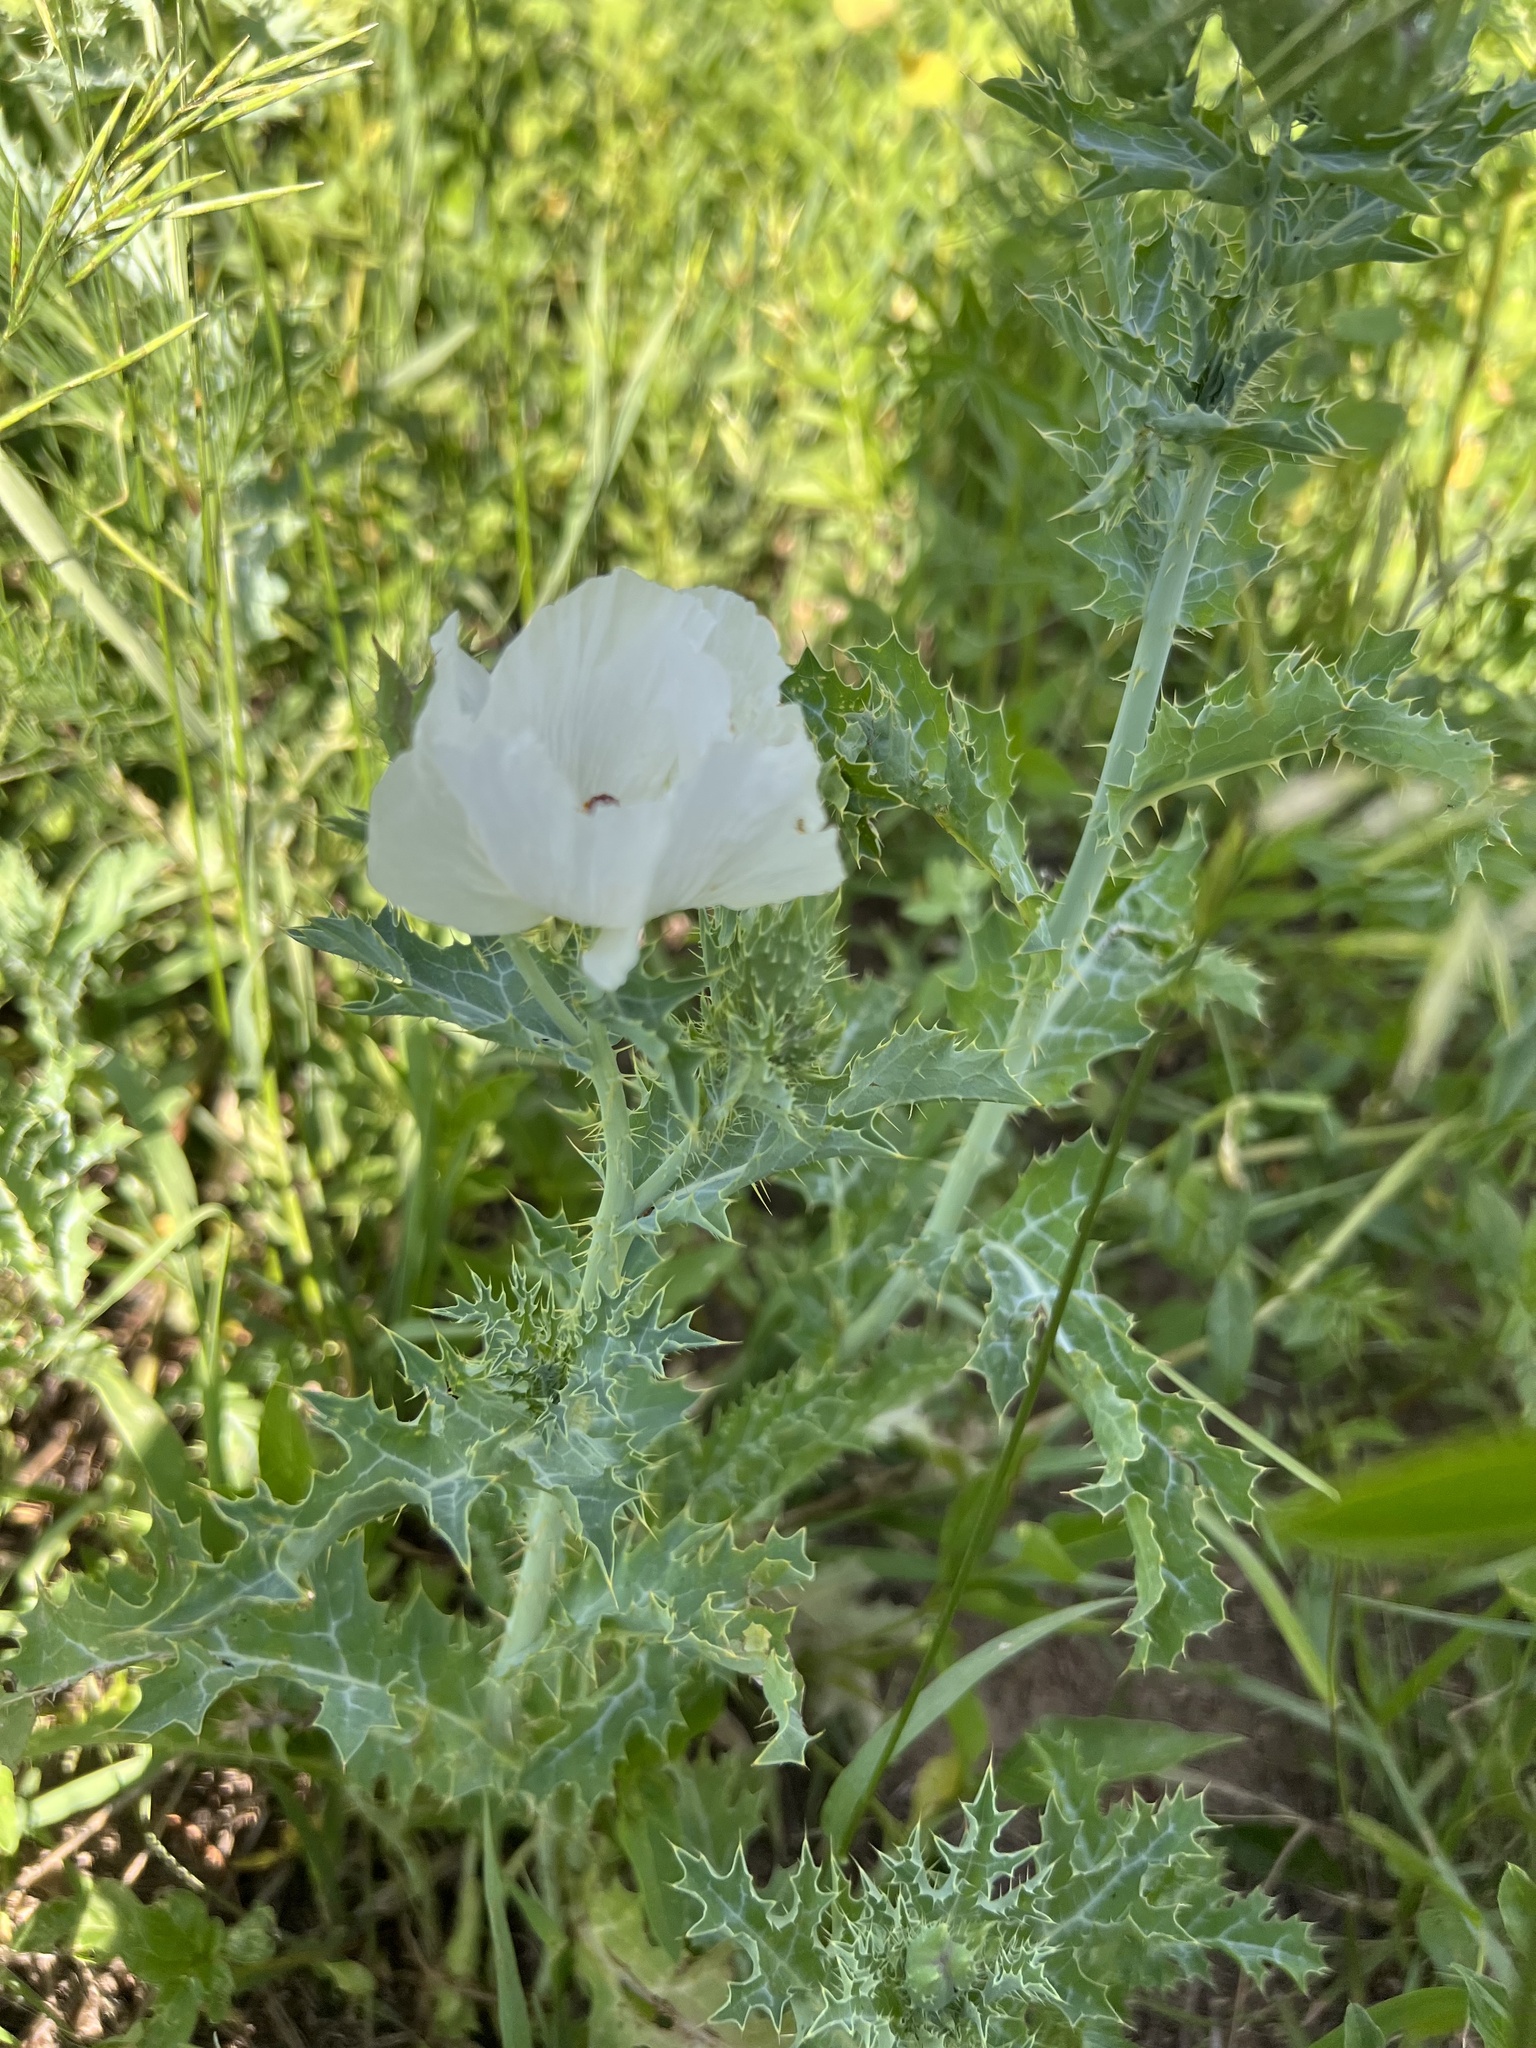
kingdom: Plantae
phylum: Tracheophyta
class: Magnoliopsida
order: Ranunculales
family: Papaveraceae
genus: Argemone
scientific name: Argemone polyanthemos
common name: Plains prickly-poppy
